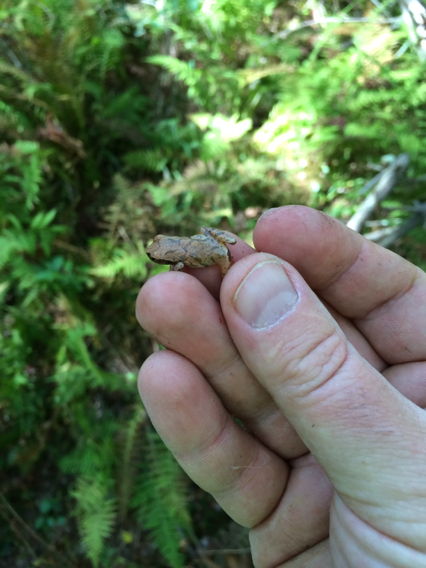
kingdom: Animalia
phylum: Chordata
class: Amphibia
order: Anura
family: Hylidae
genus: Pseudacris
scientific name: Pseudacris crucifer
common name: Spring peeper
